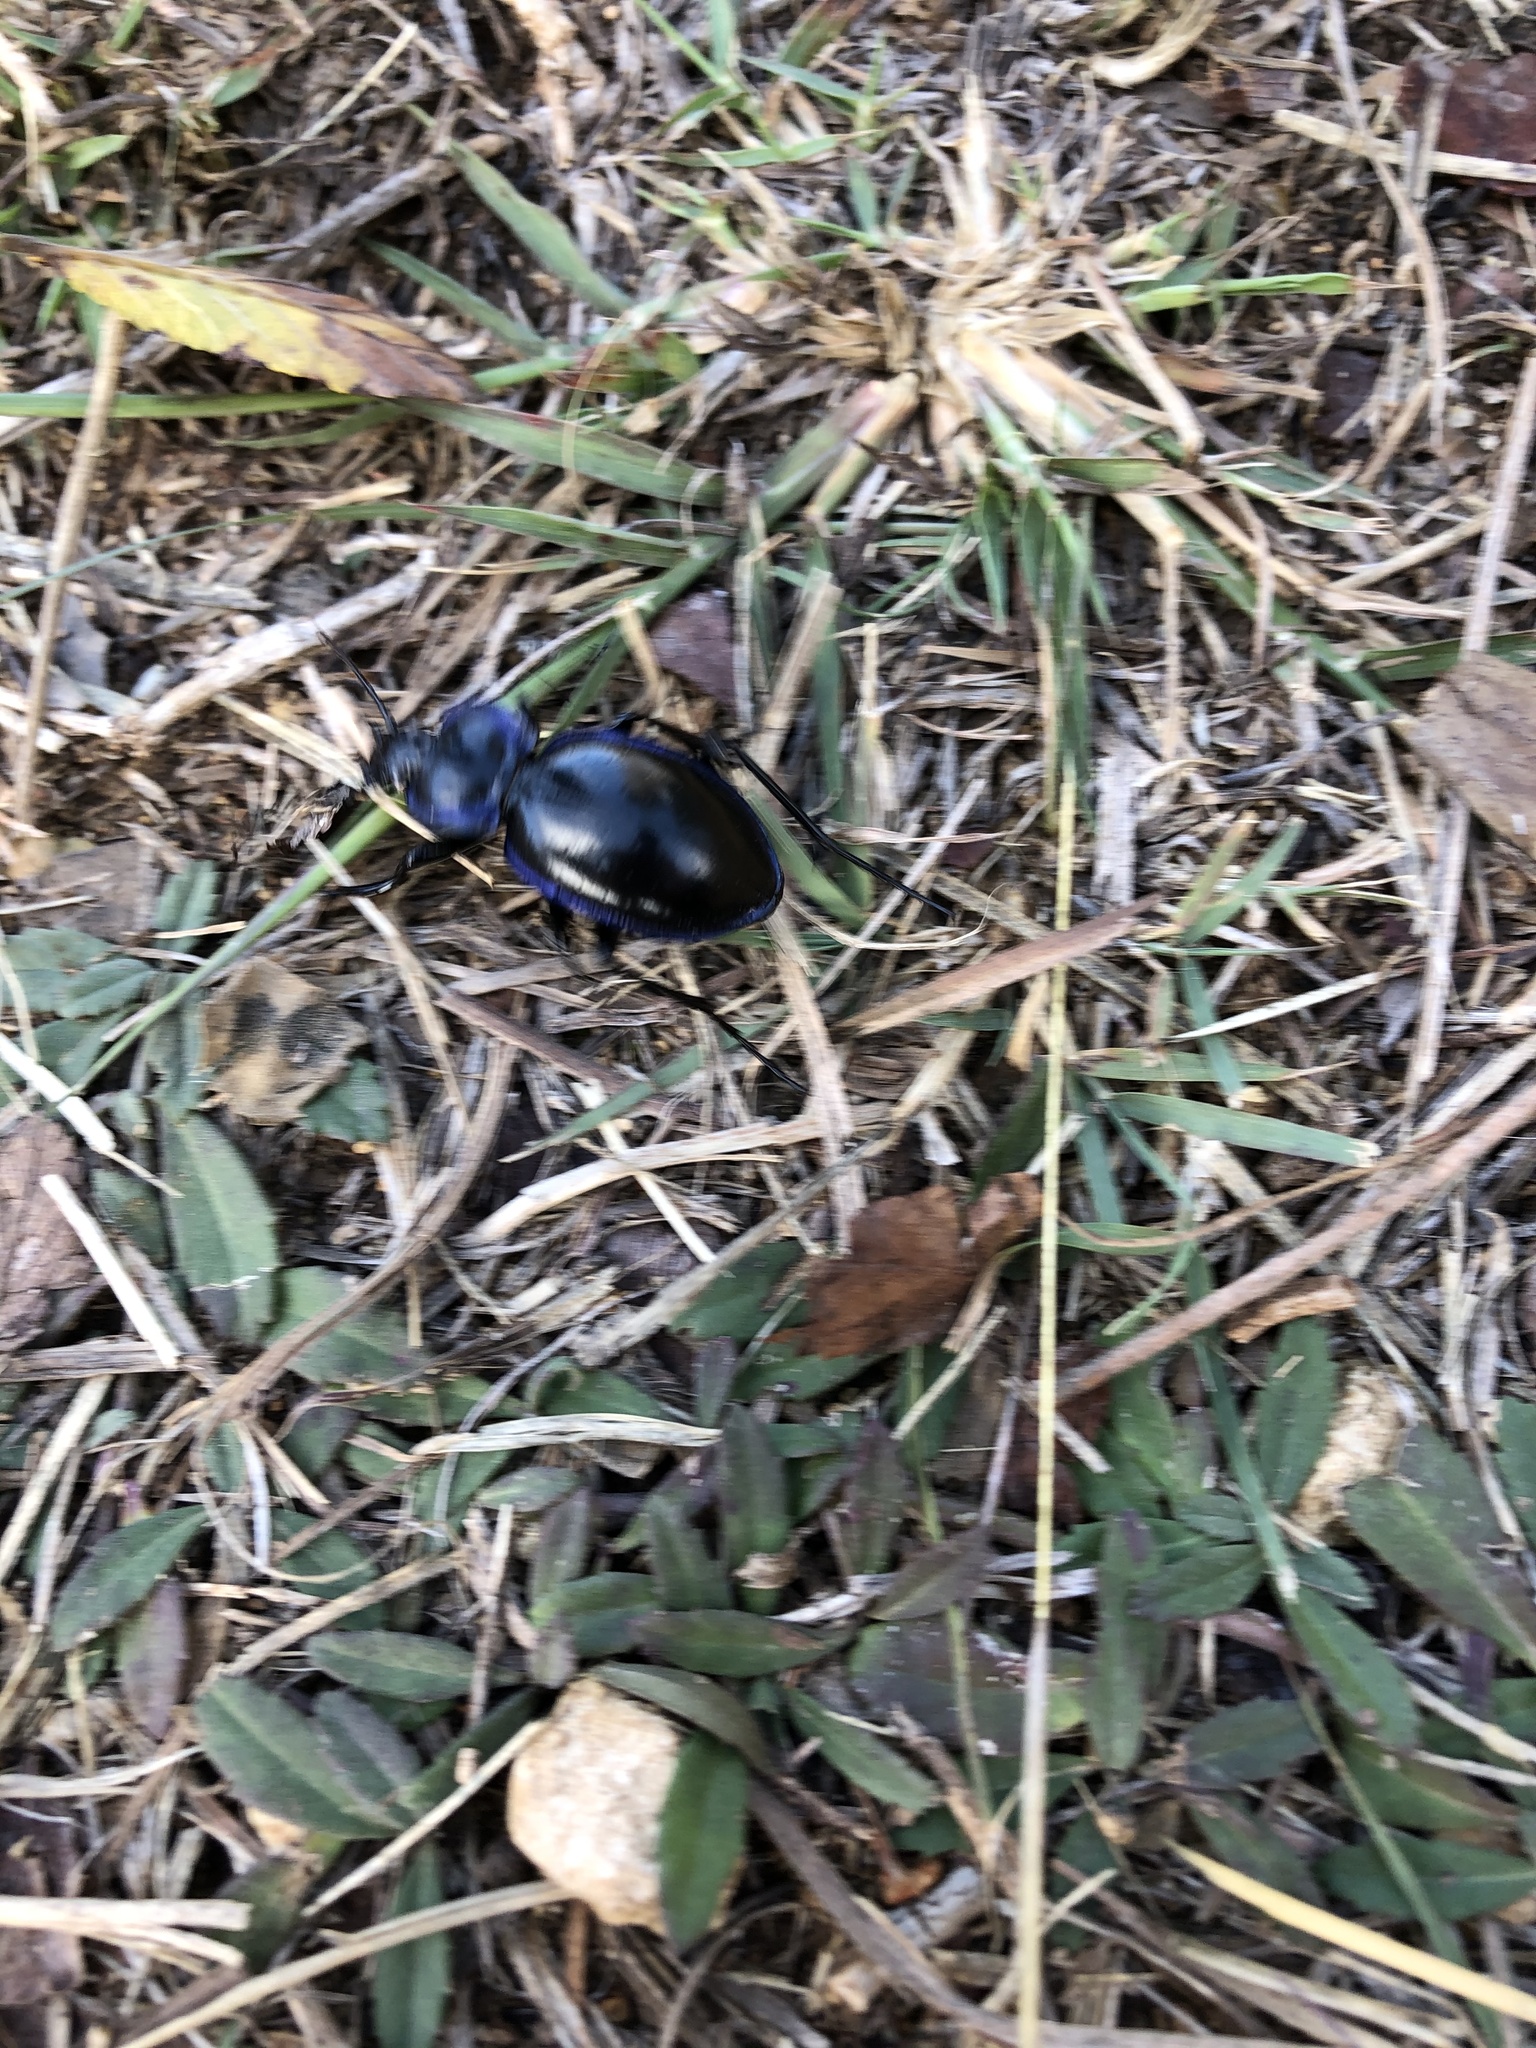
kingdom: Animalia
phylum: Arthropoda
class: Insecta
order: Coleoptera
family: Carabidae
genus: Carabus
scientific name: Carabus finitimus
